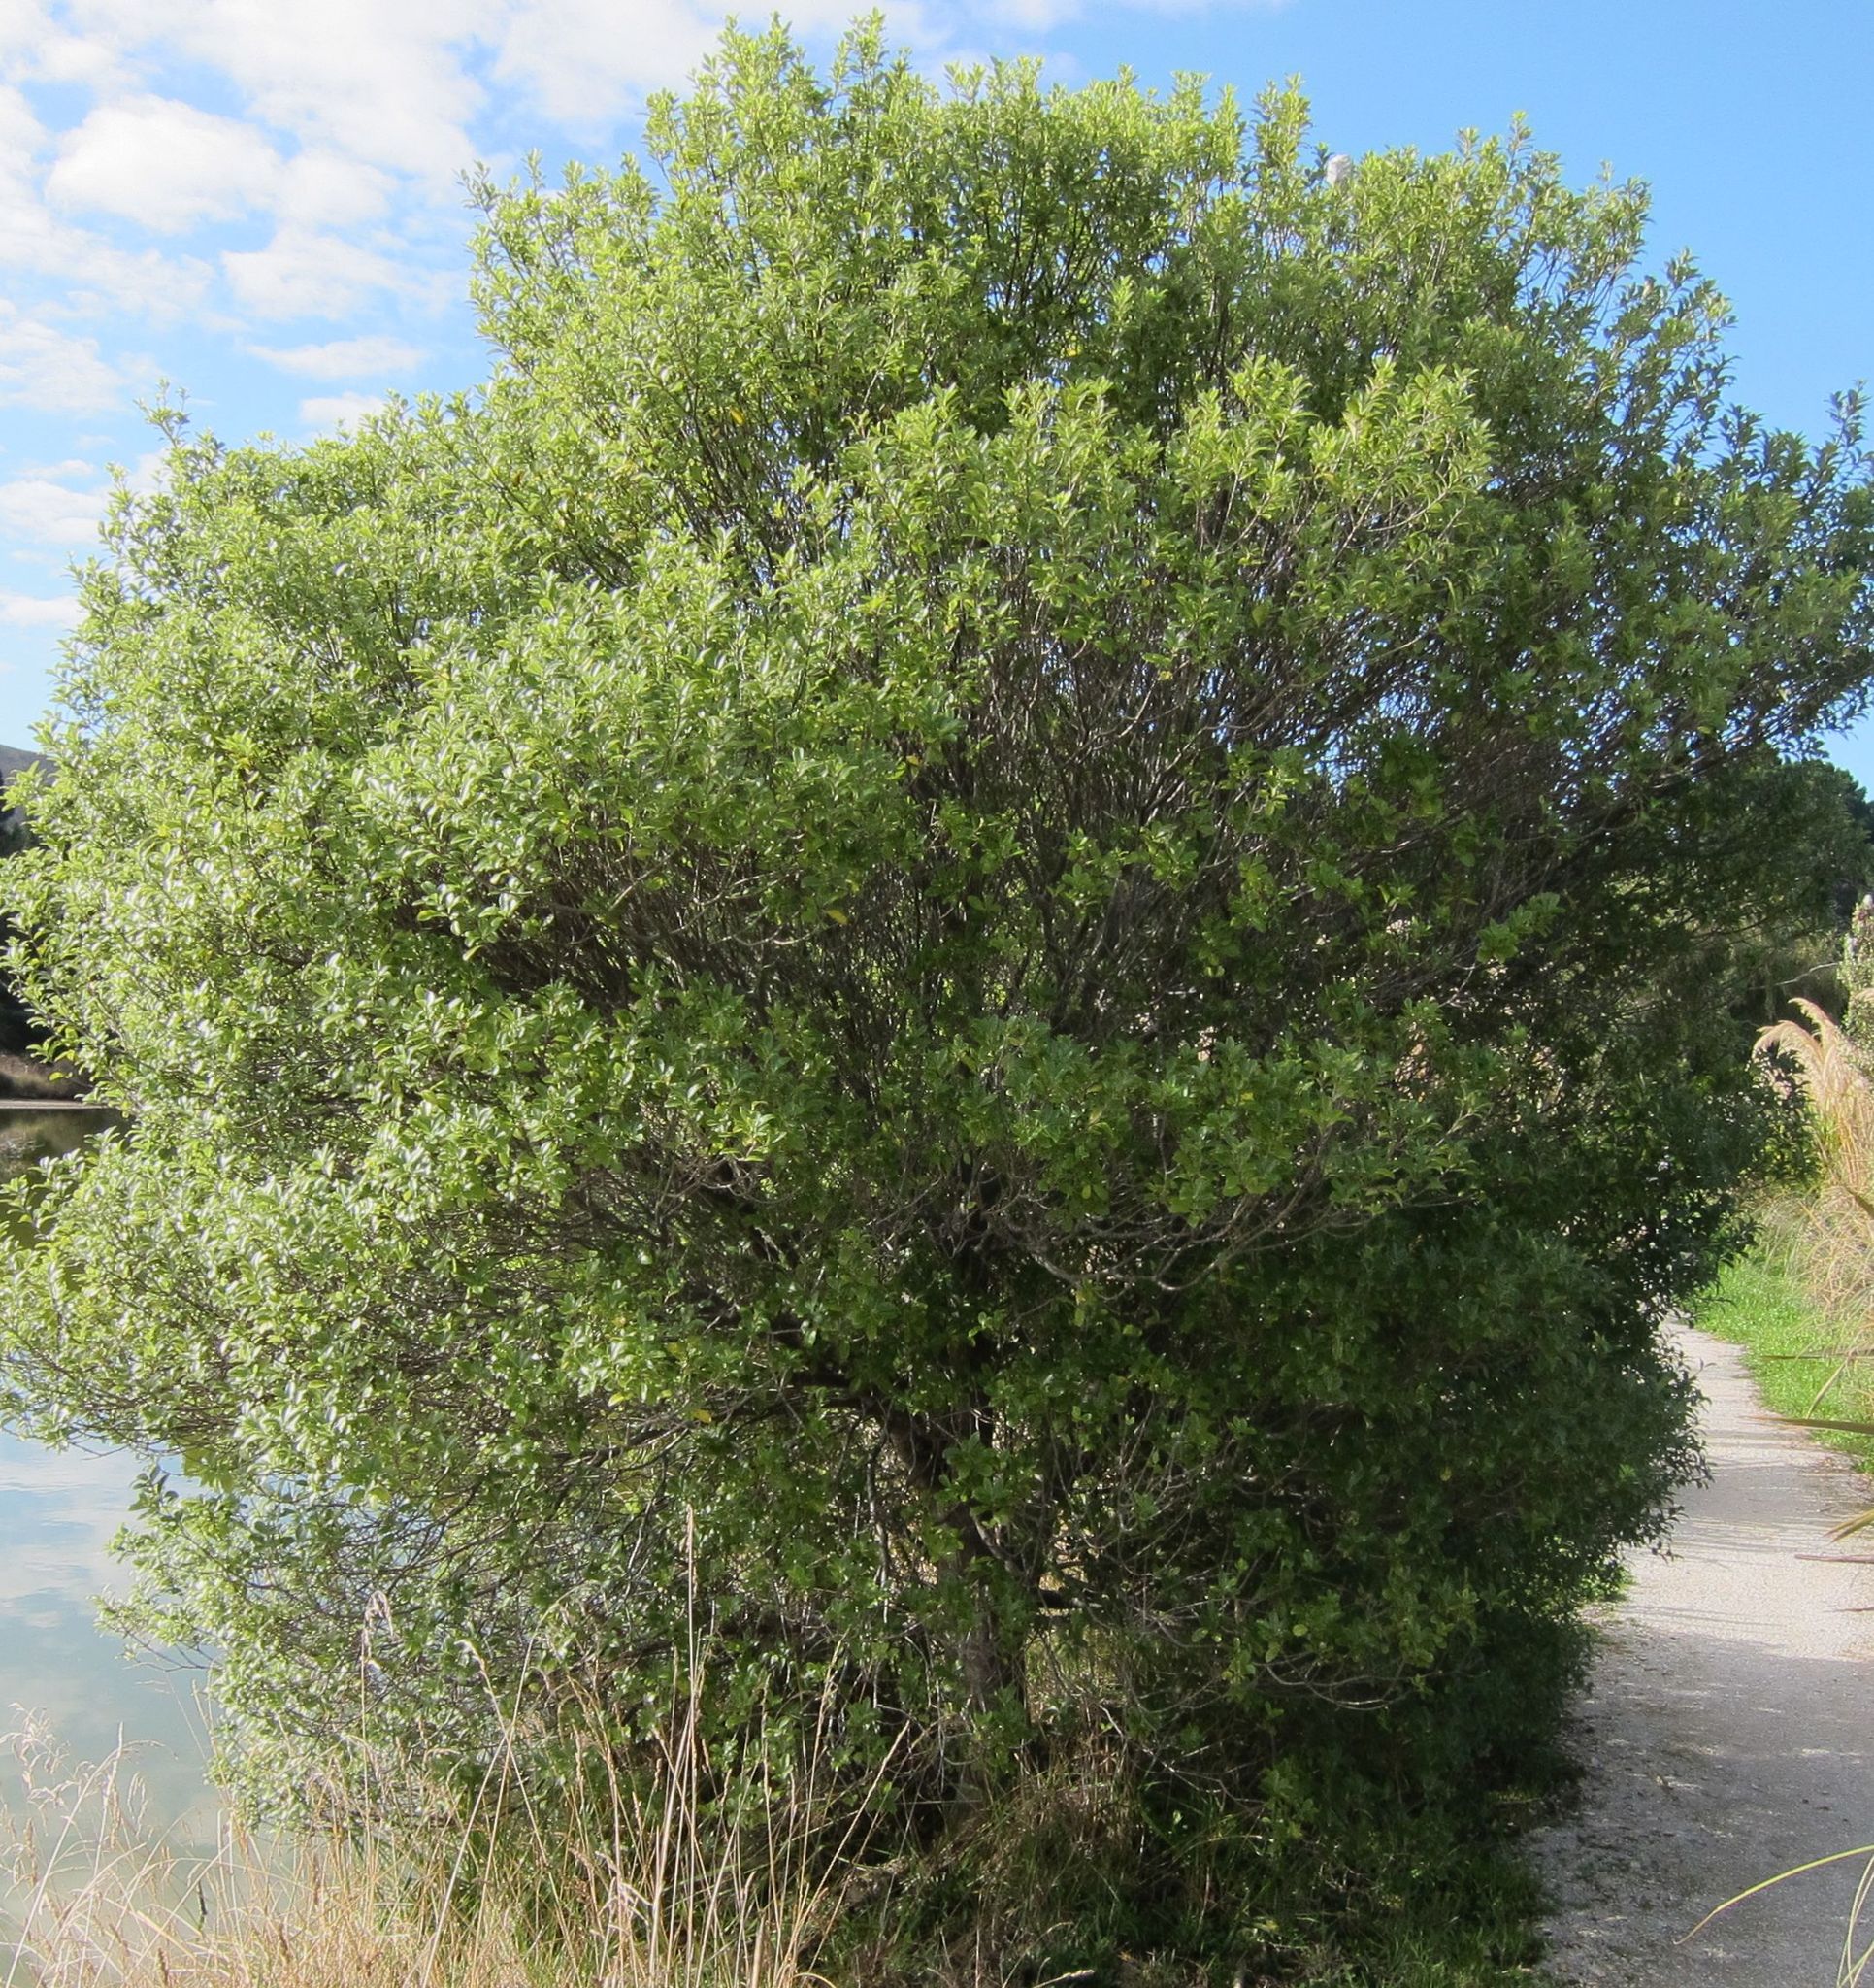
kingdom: Plantae
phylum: Tracheophyta
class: Magnoliopsida
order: Apiales
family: Pittosporaceae
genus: Pittosporum
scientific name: Pittosporum colensoi
